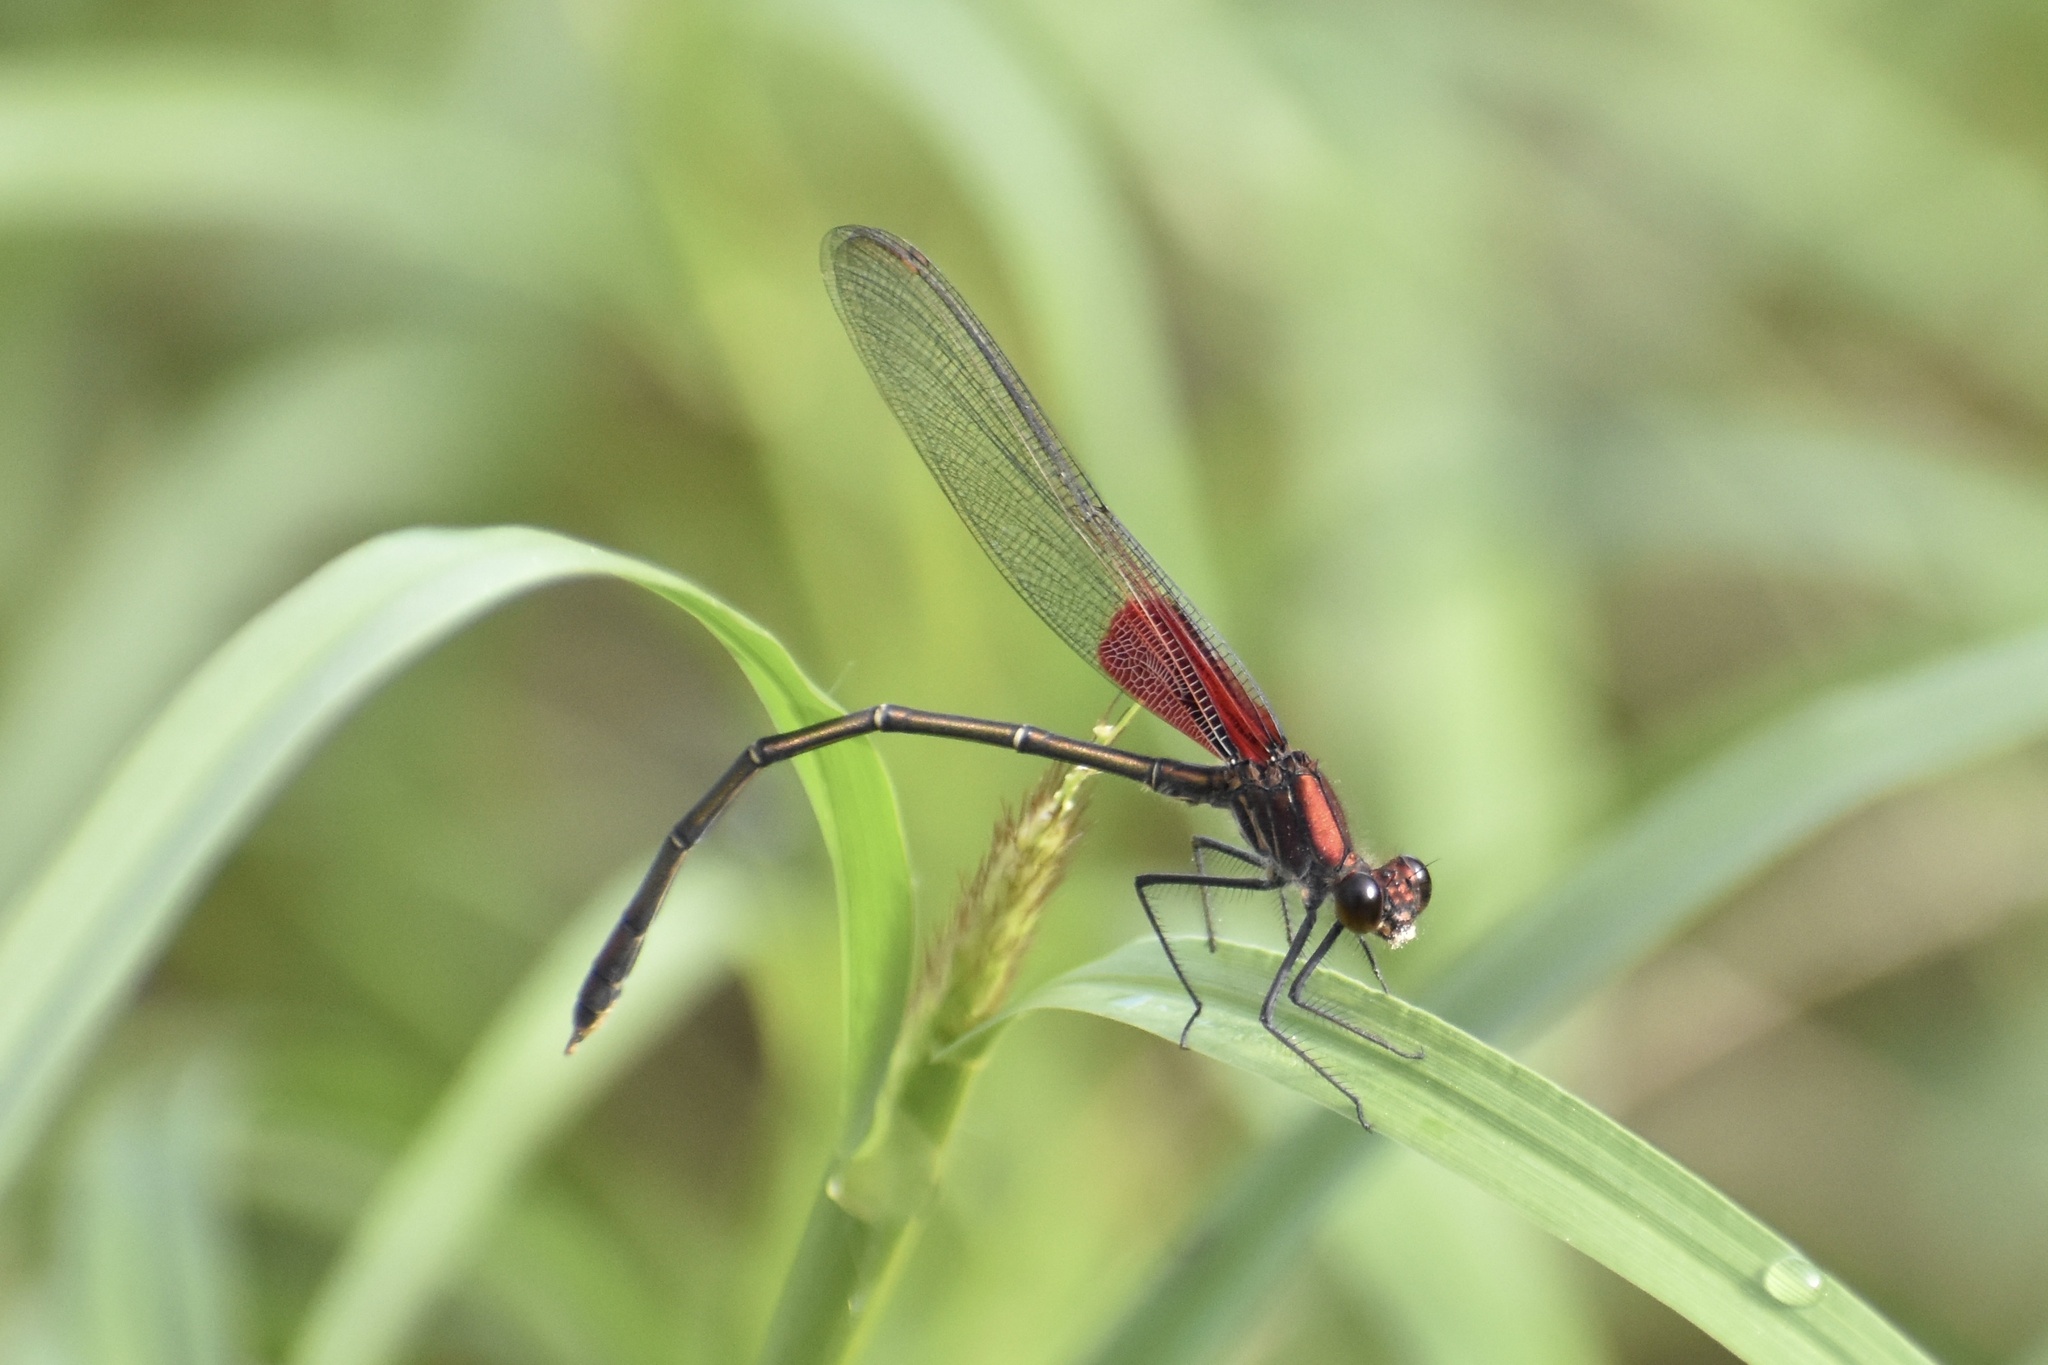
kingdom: Animalia
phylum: Arthropoda
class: Insecta
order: Odonata
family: Calopterygidae
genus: Hetaerina
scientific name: Hetaerina americana
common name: American rubyspot
